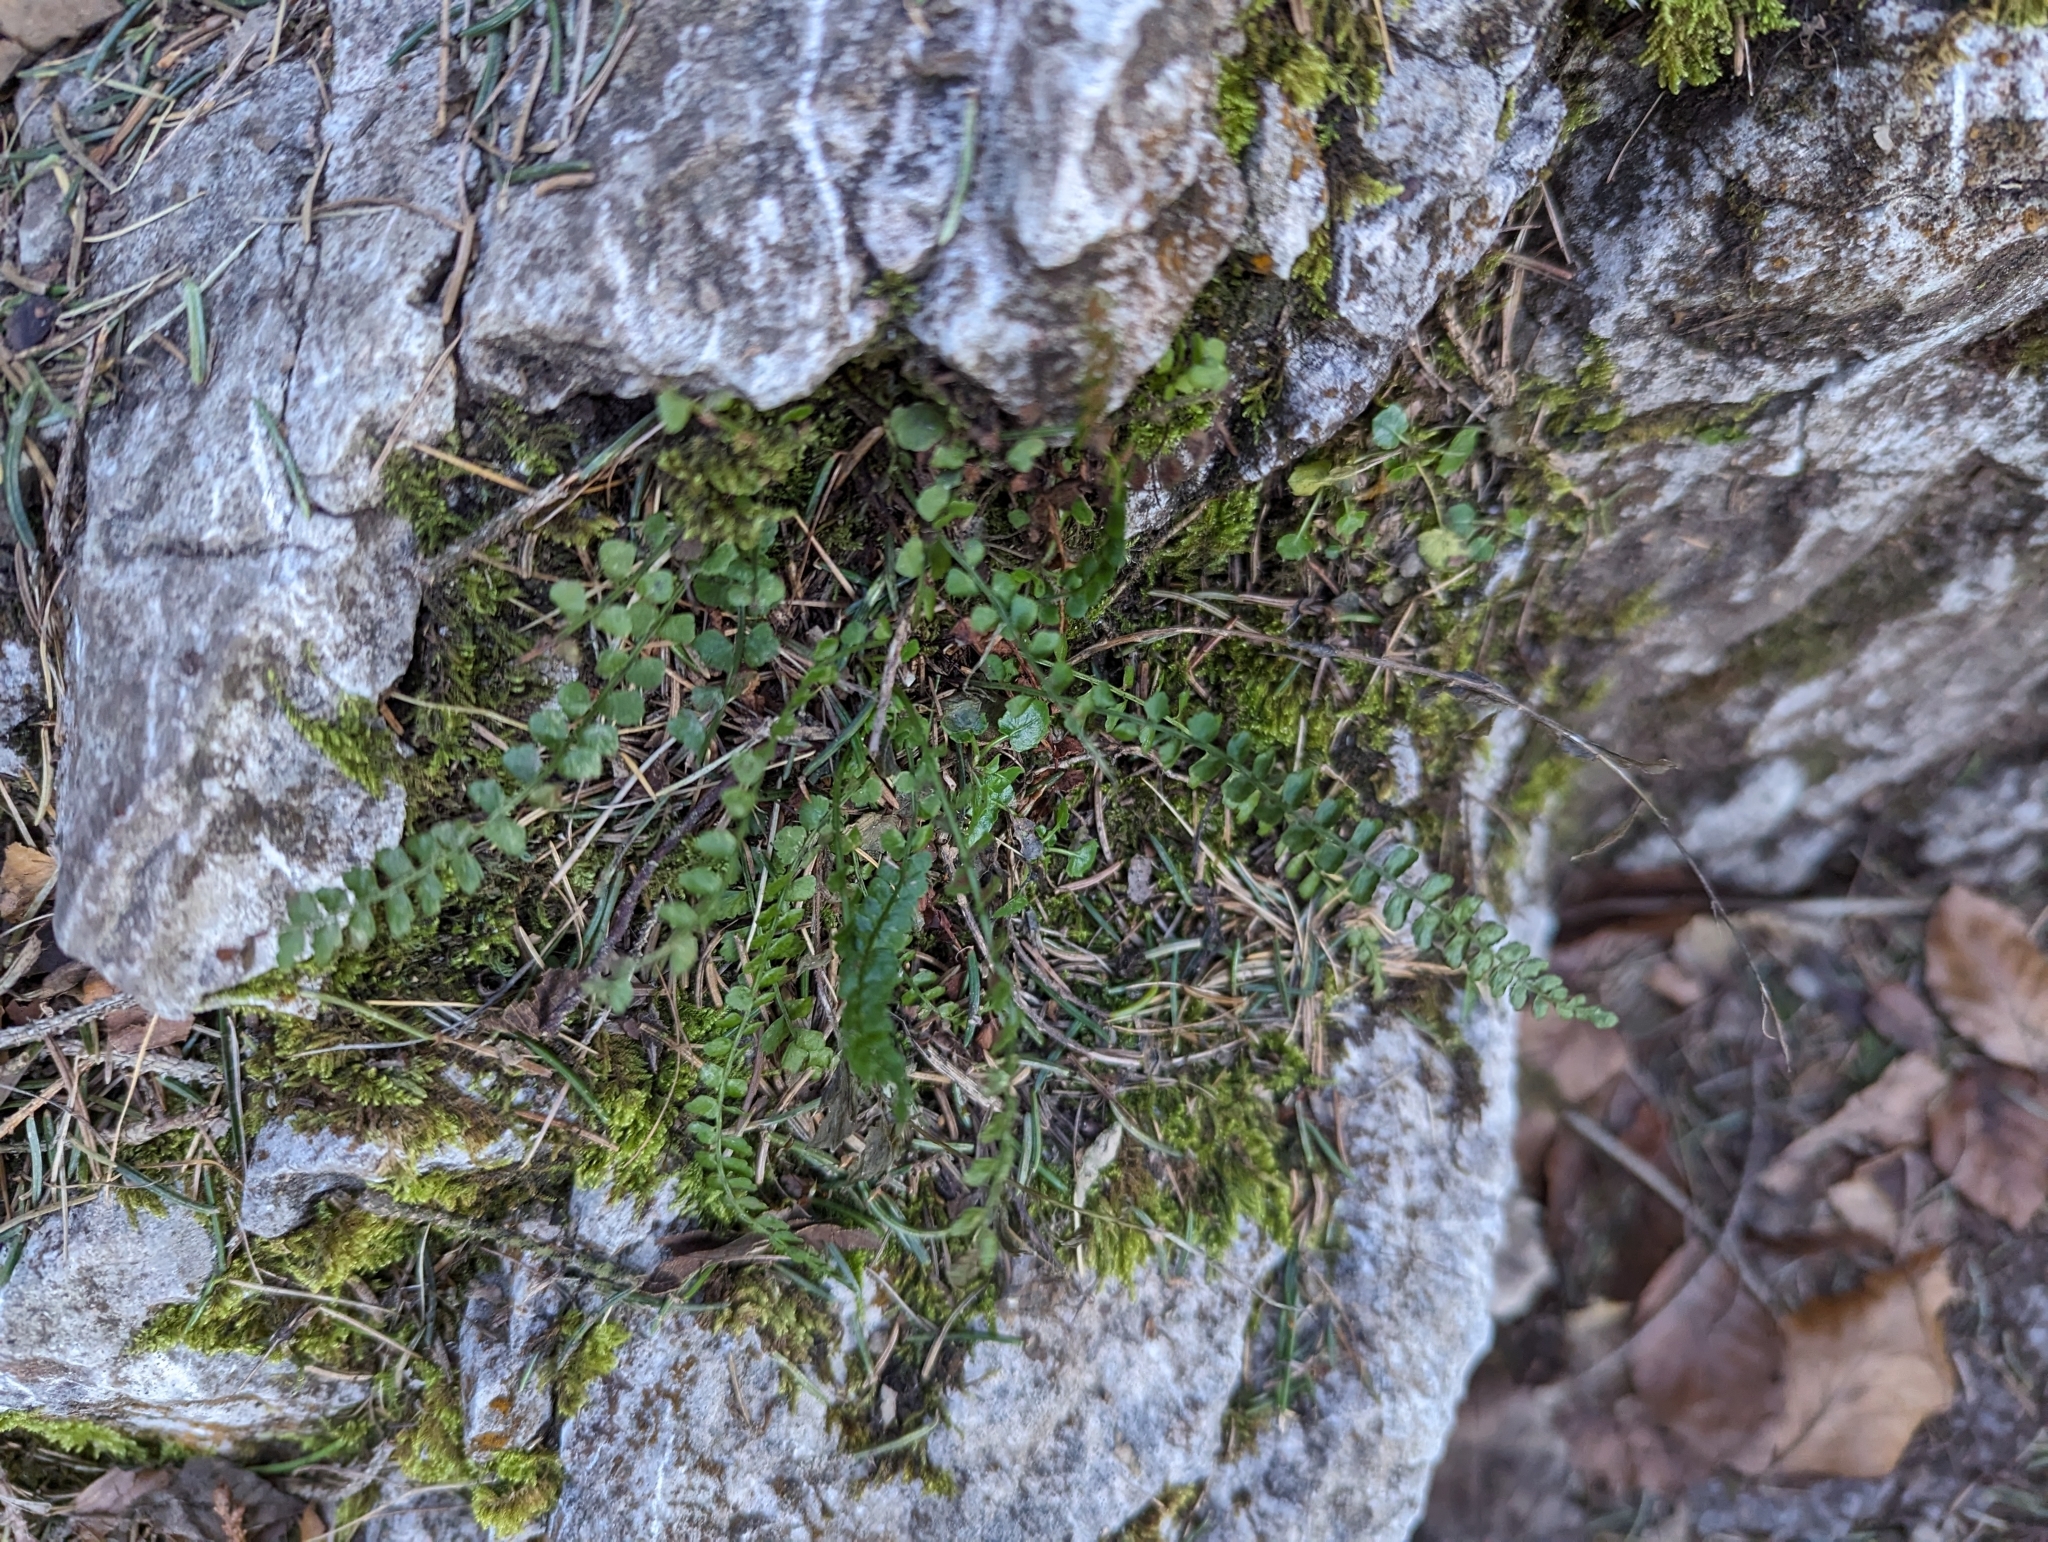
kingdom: Plantae
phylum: Tracheophyta
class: Polypodiopsida
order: Polypodiales
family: Aspleniaceae
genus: Asplenium
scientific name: Asplenium viride
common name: Green spleenwort
